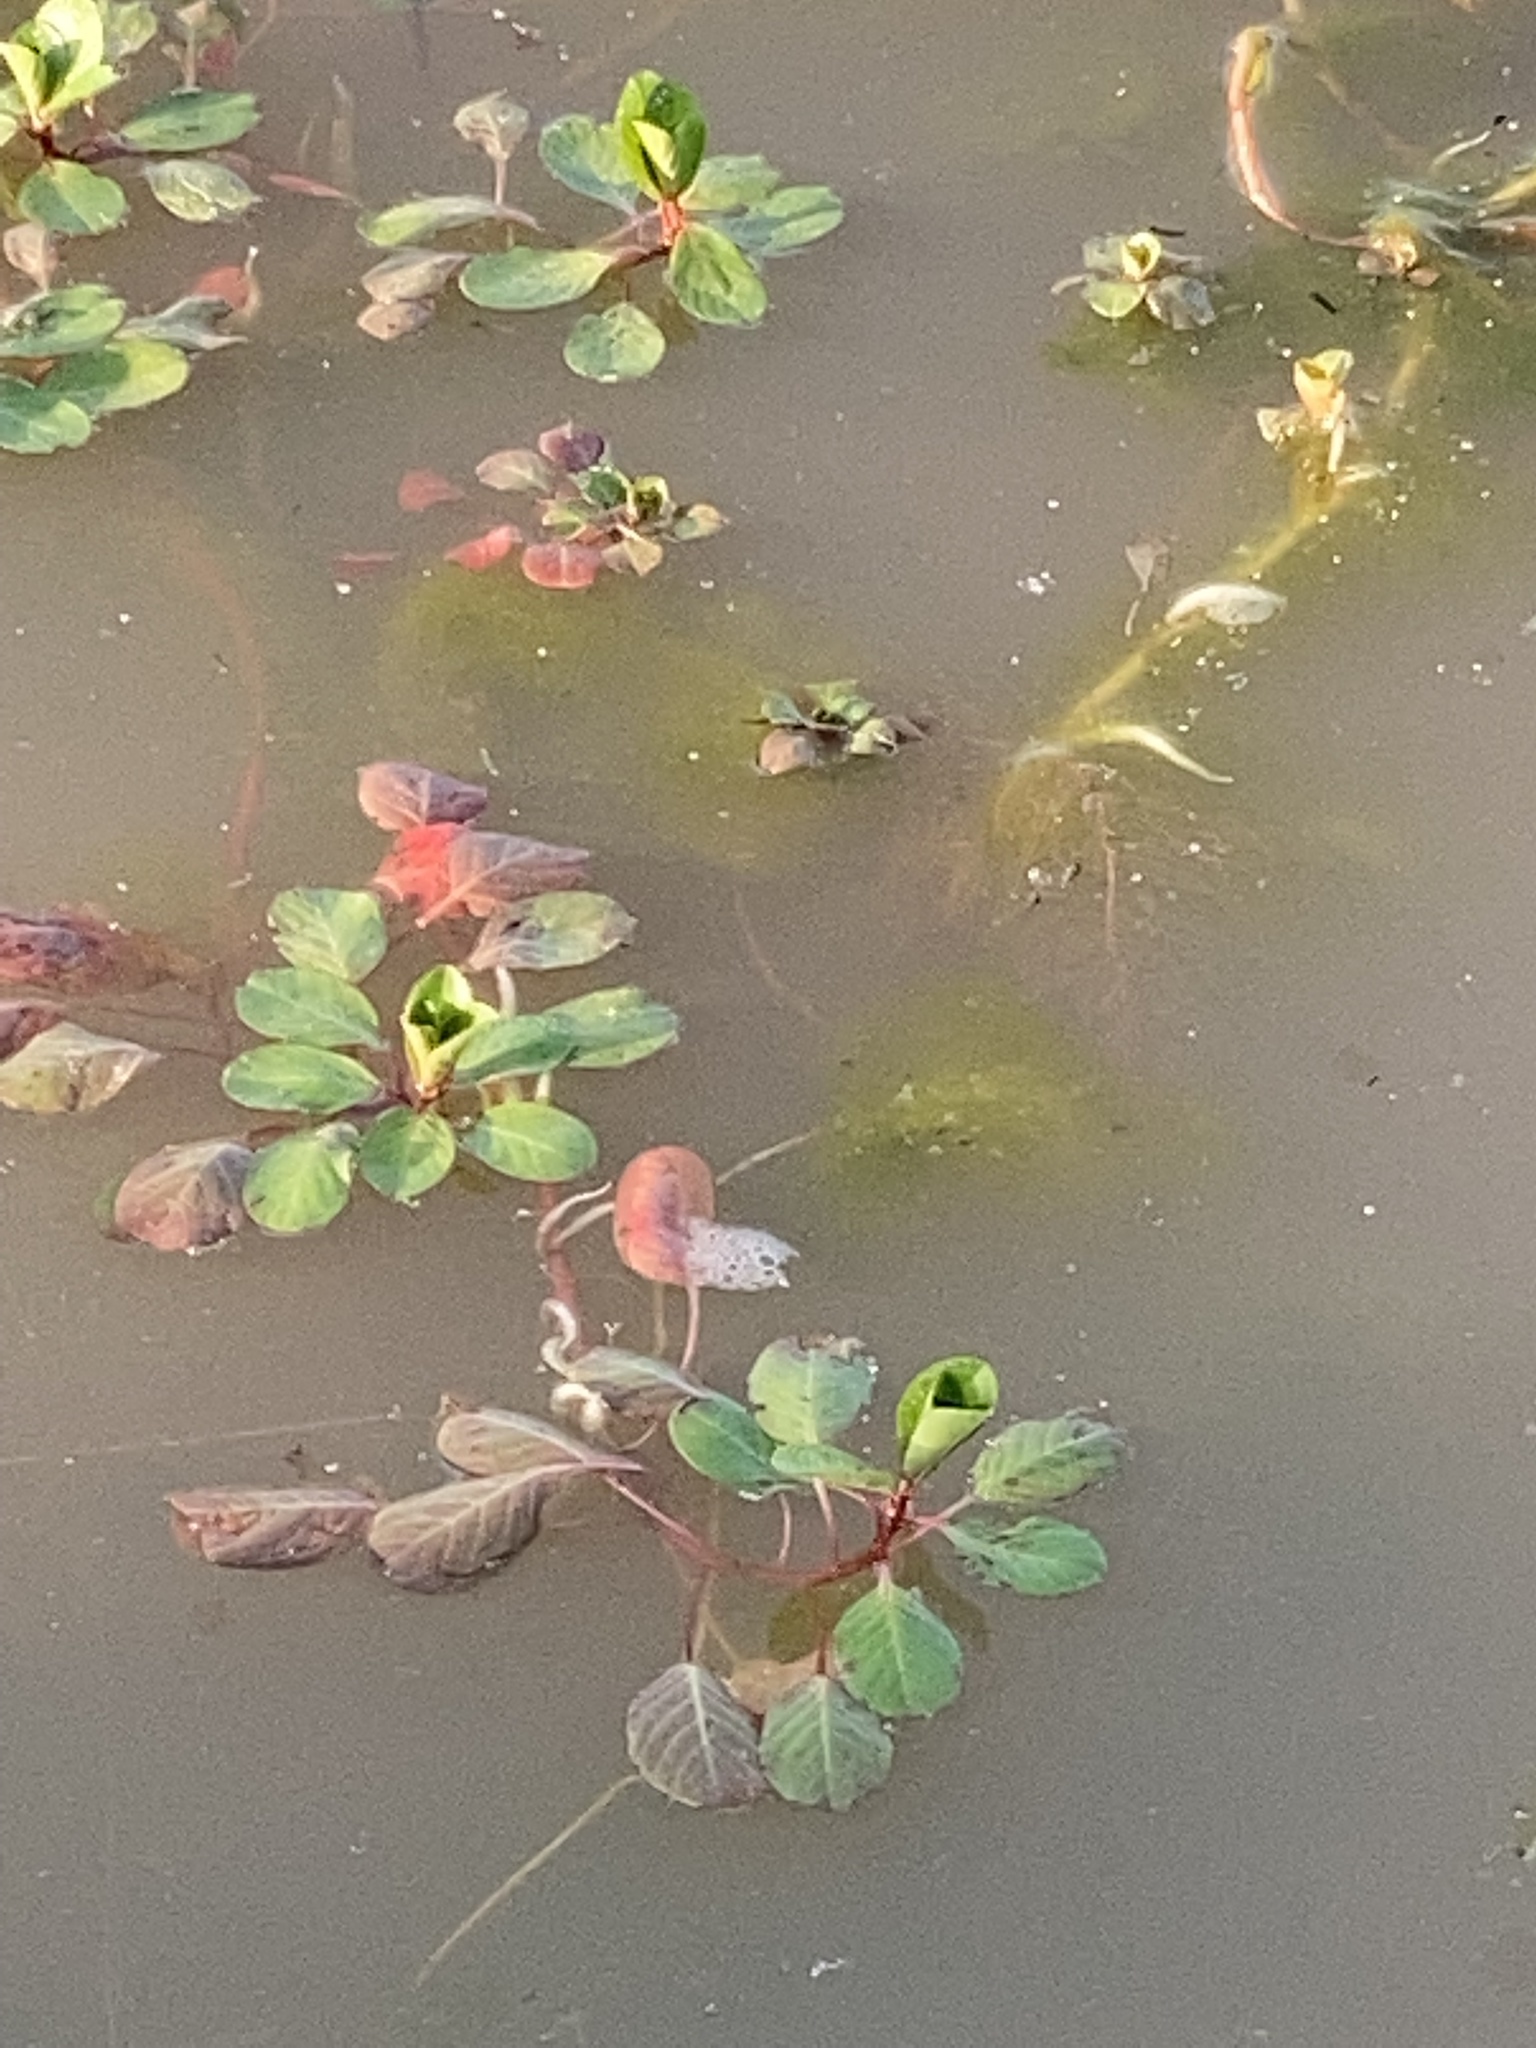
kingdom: Plantae
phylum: Tracheophyta
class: Magnoliopsida
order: Myrtales
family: Onagraceae
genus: Ludwigia
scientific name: Ludwigia peploides
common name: Floating primrose-willow
